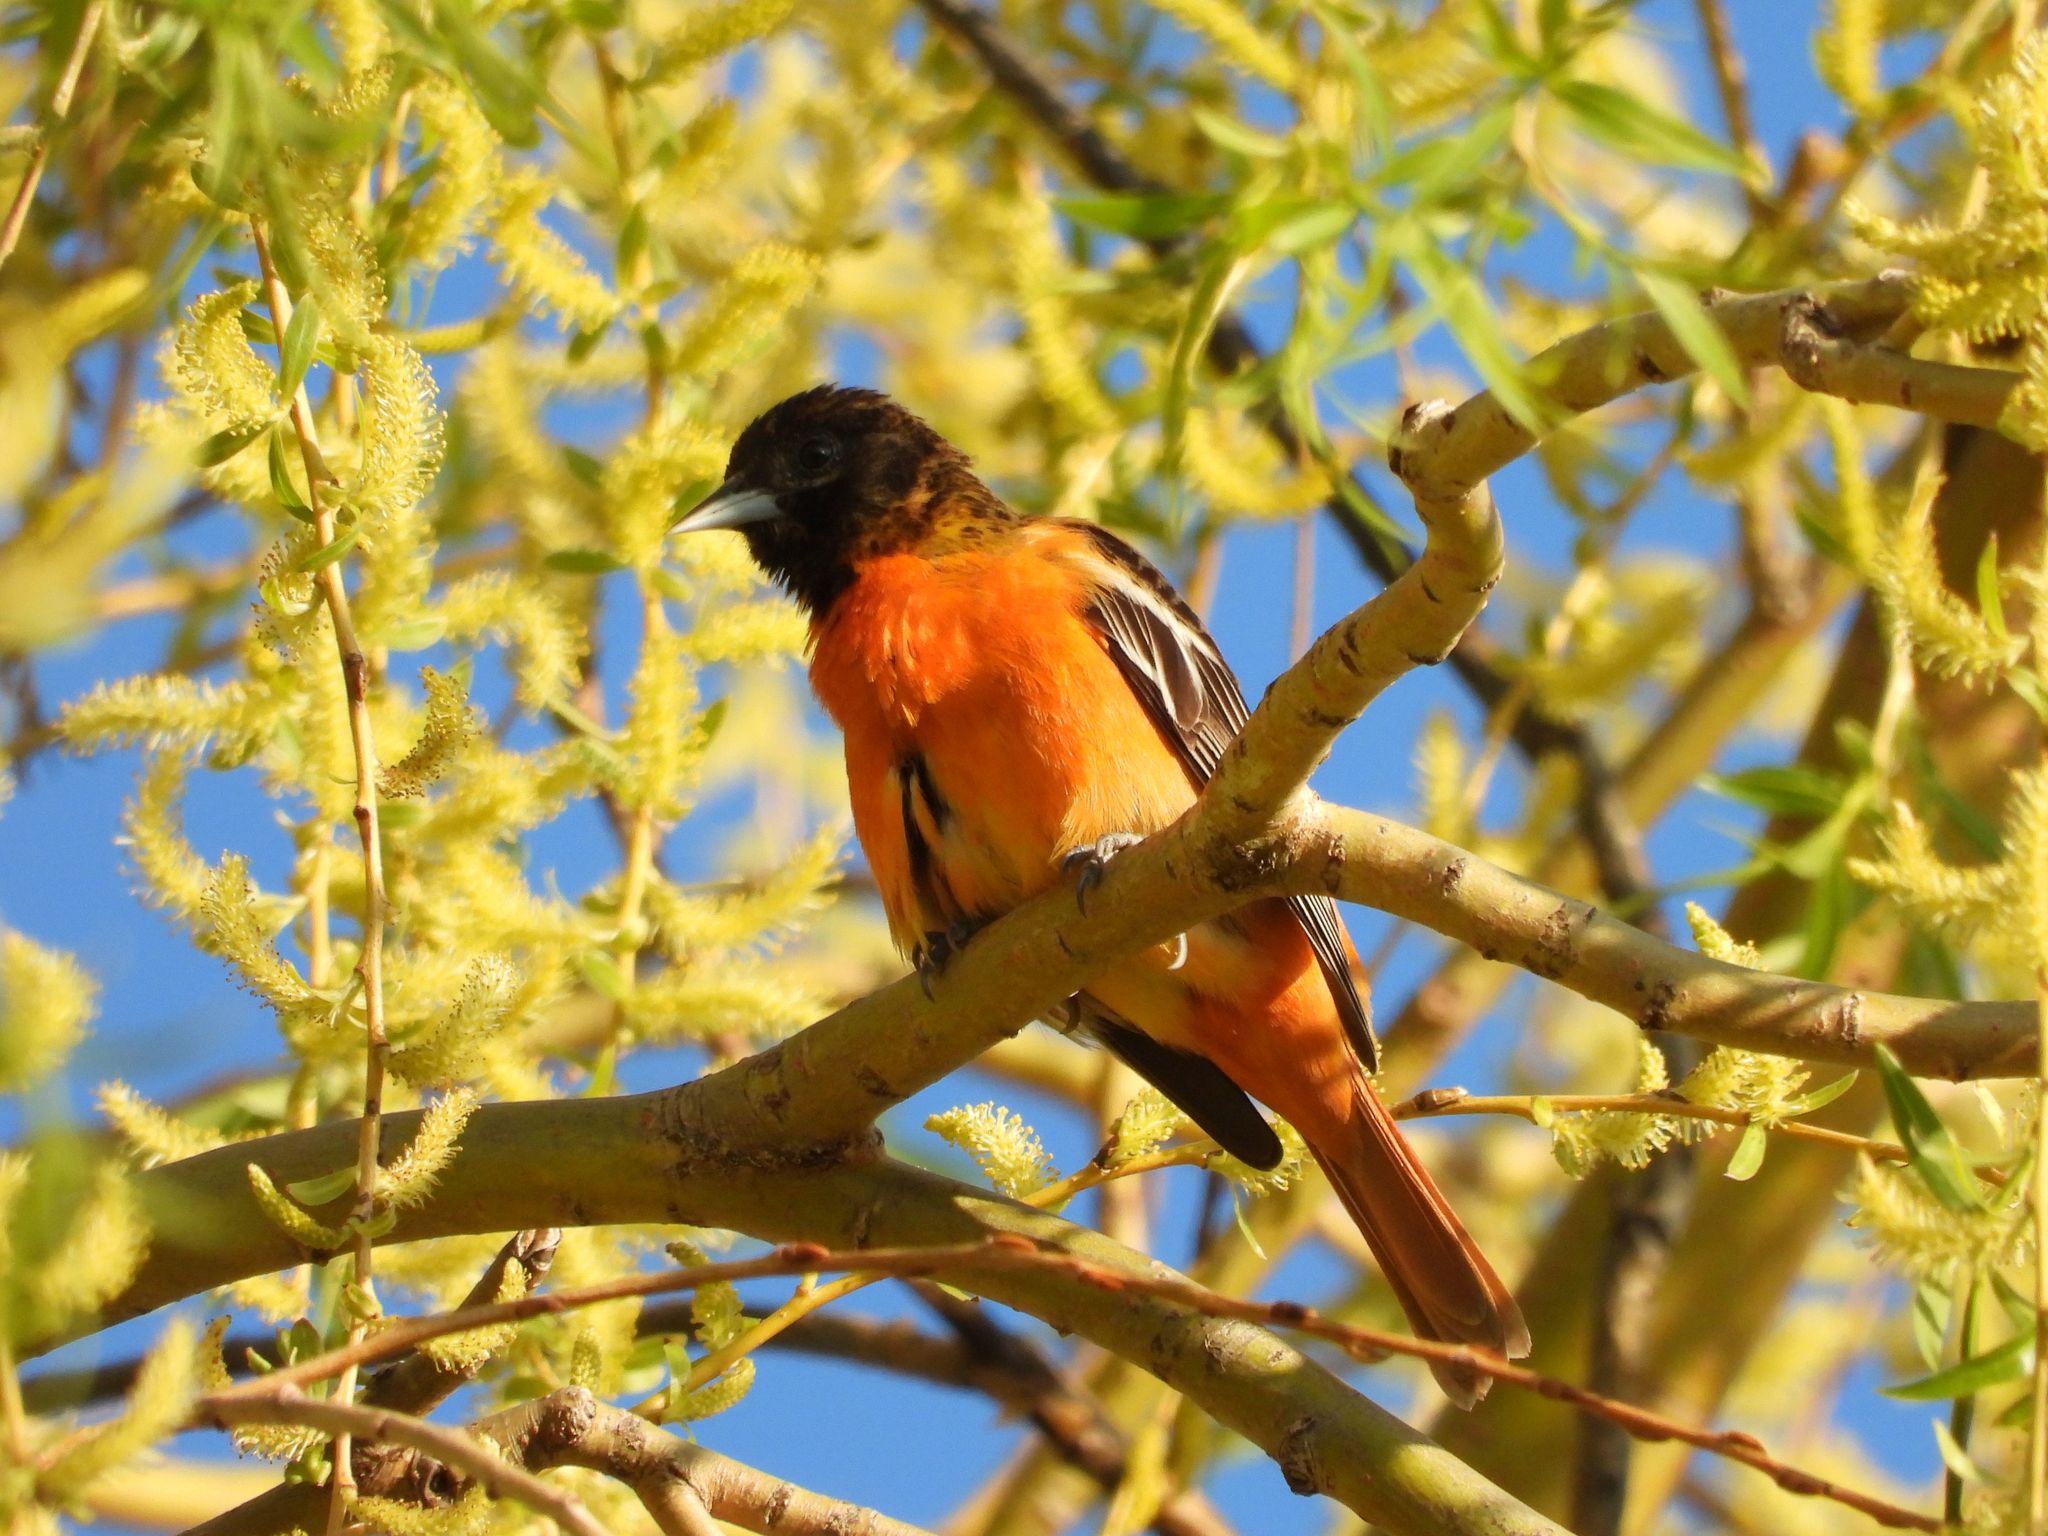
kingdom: Animalia
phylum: Chordata
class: Aves
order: Passeriformes
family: Icteridae
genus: Icterus
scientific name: Icterus galbula
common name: Baltimore oriole
